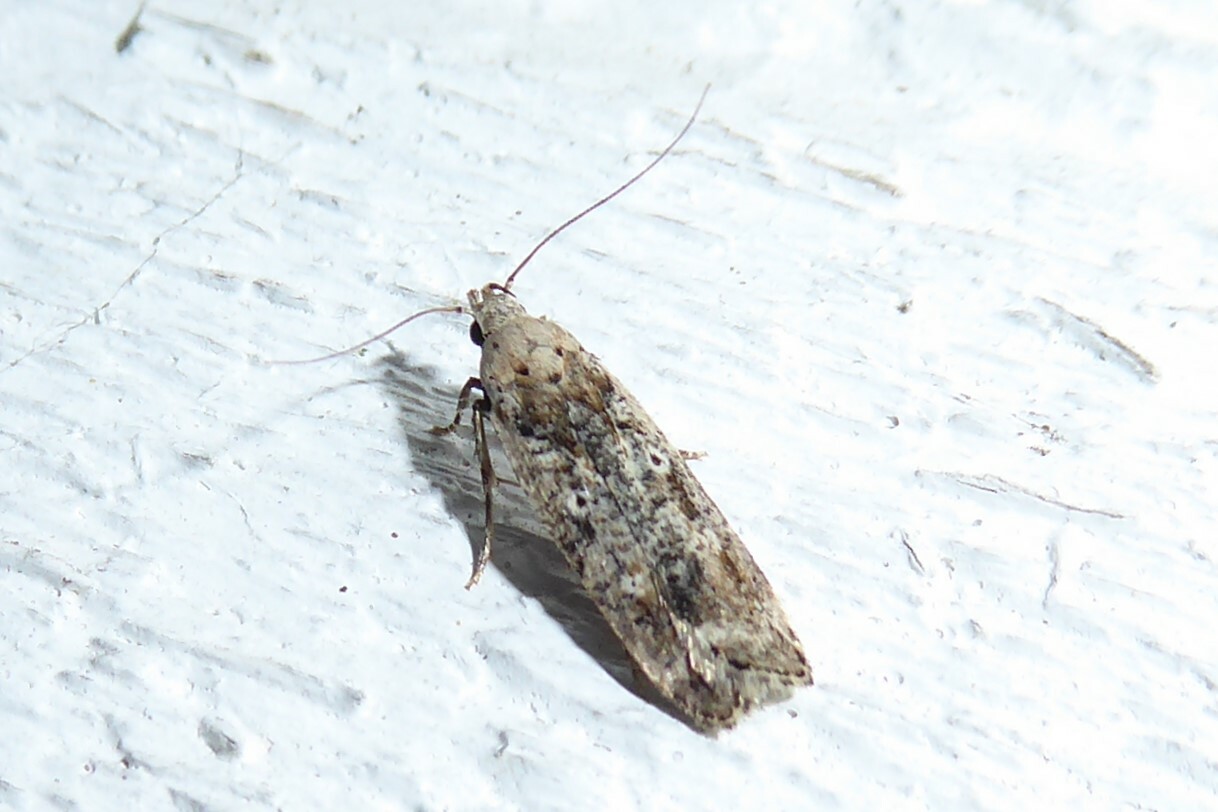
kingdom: Animalia
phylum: Arthropoda
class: Insecta
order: Lepidoptera
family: Gelechiidae
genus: Anisoplaca
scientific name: Anisoplaca achyrota
